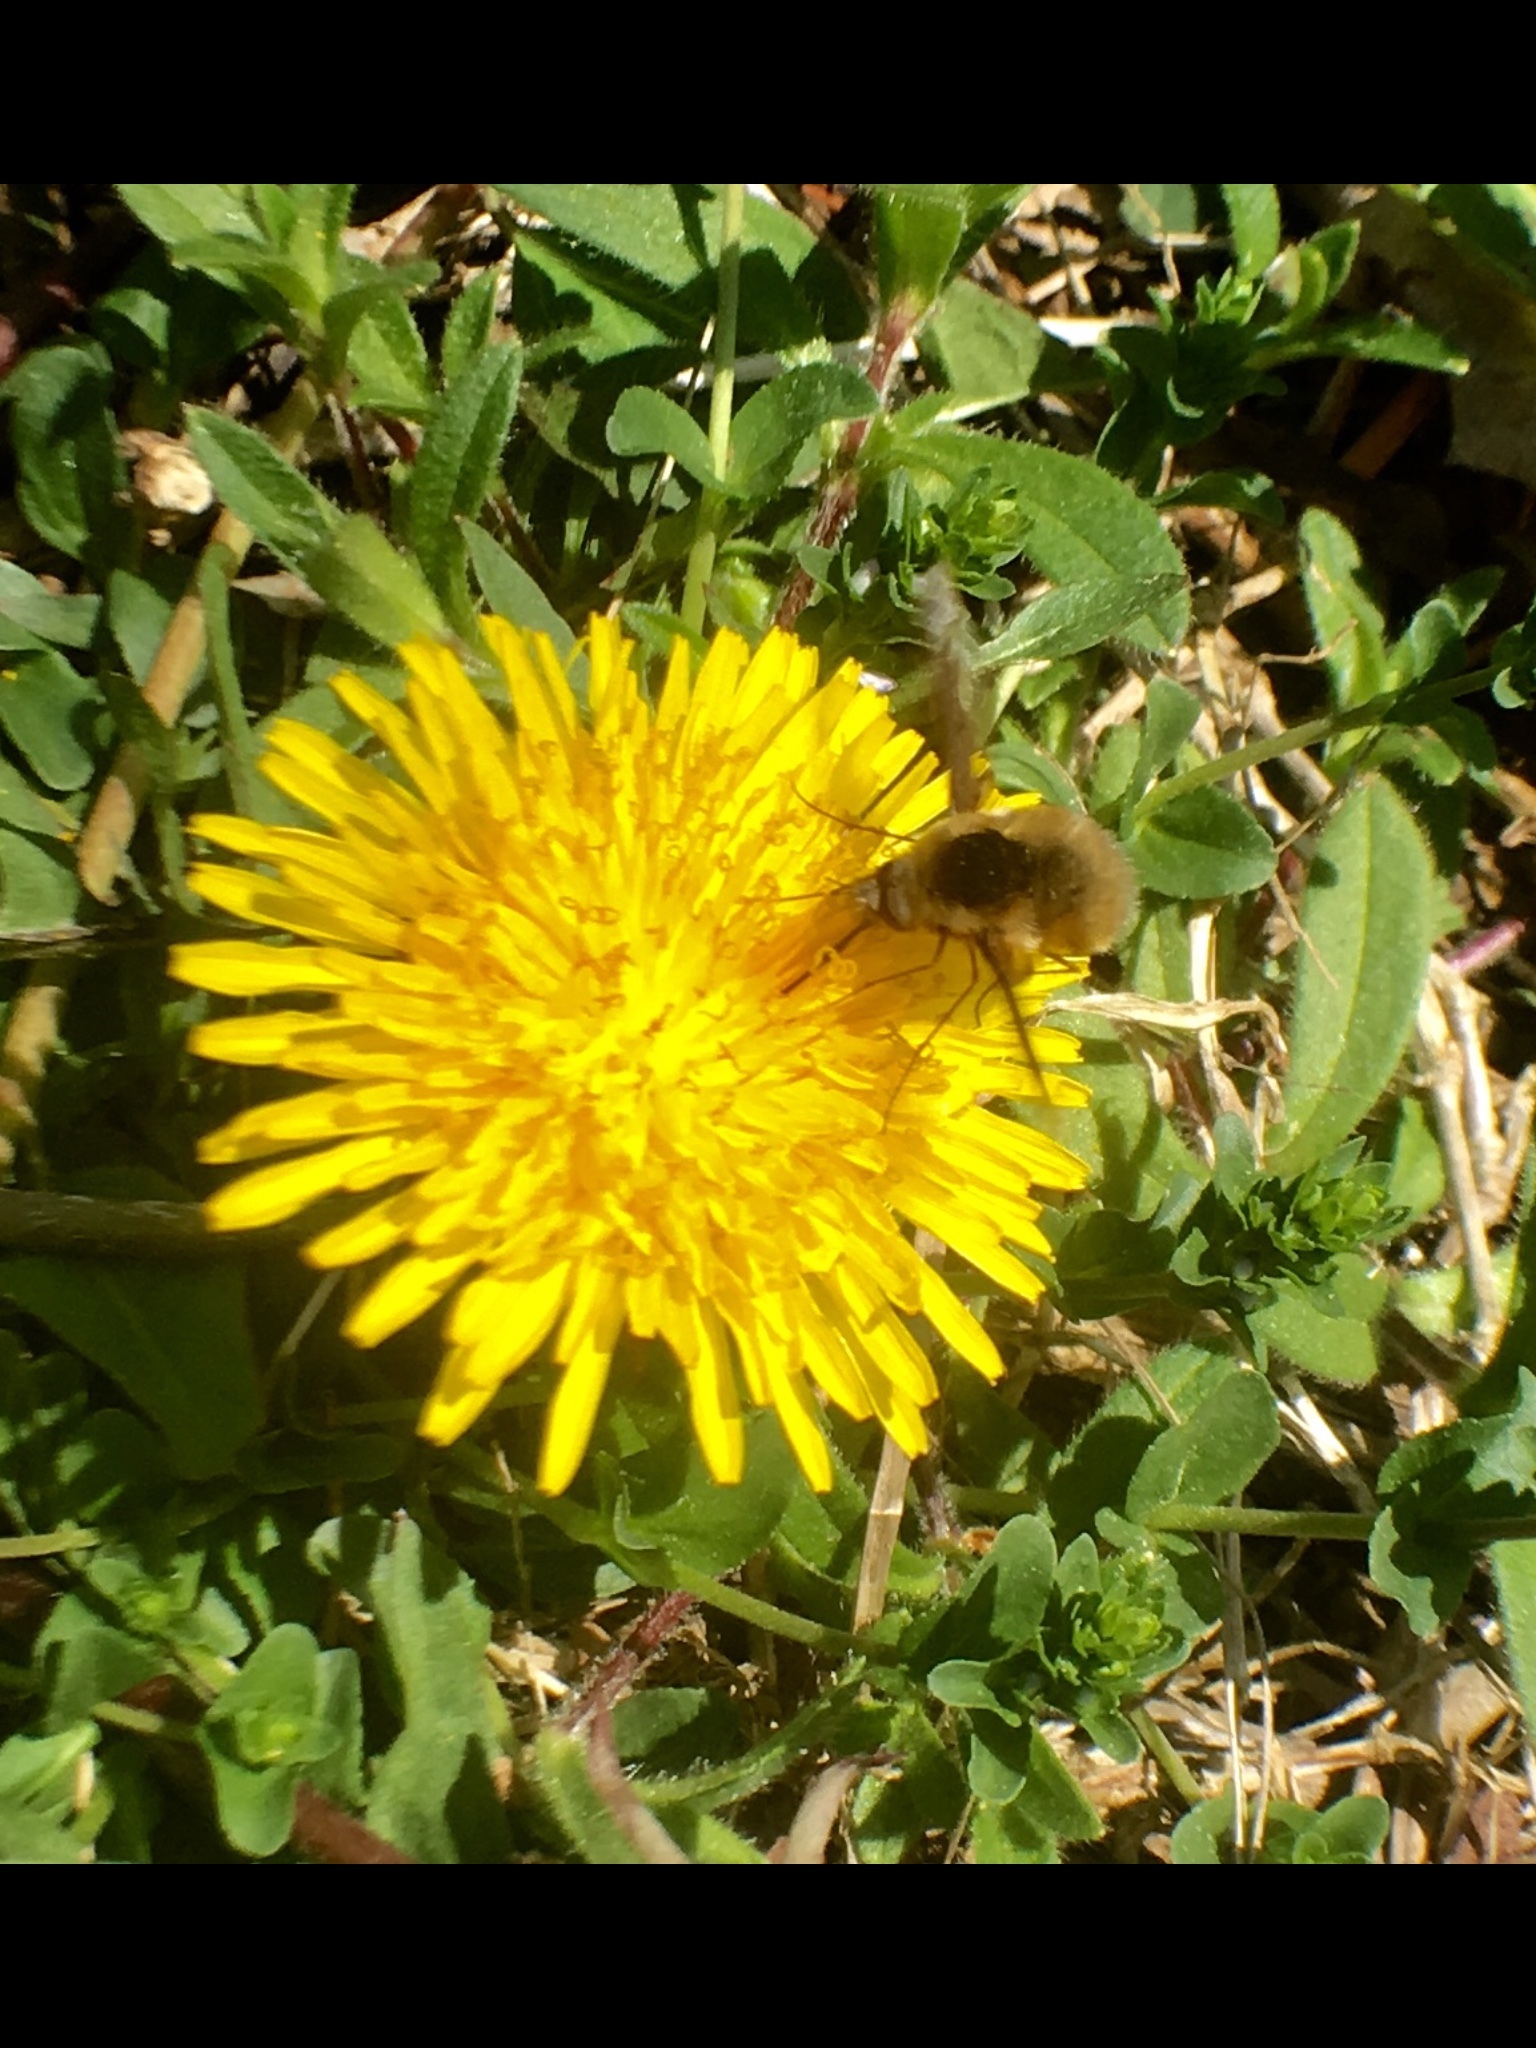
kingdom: Animalia
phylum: Arthropoda
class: Insecta
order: Diptera
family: Bombyliidae
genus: Bombylius
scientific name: Bombylius major
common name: Bee fly
